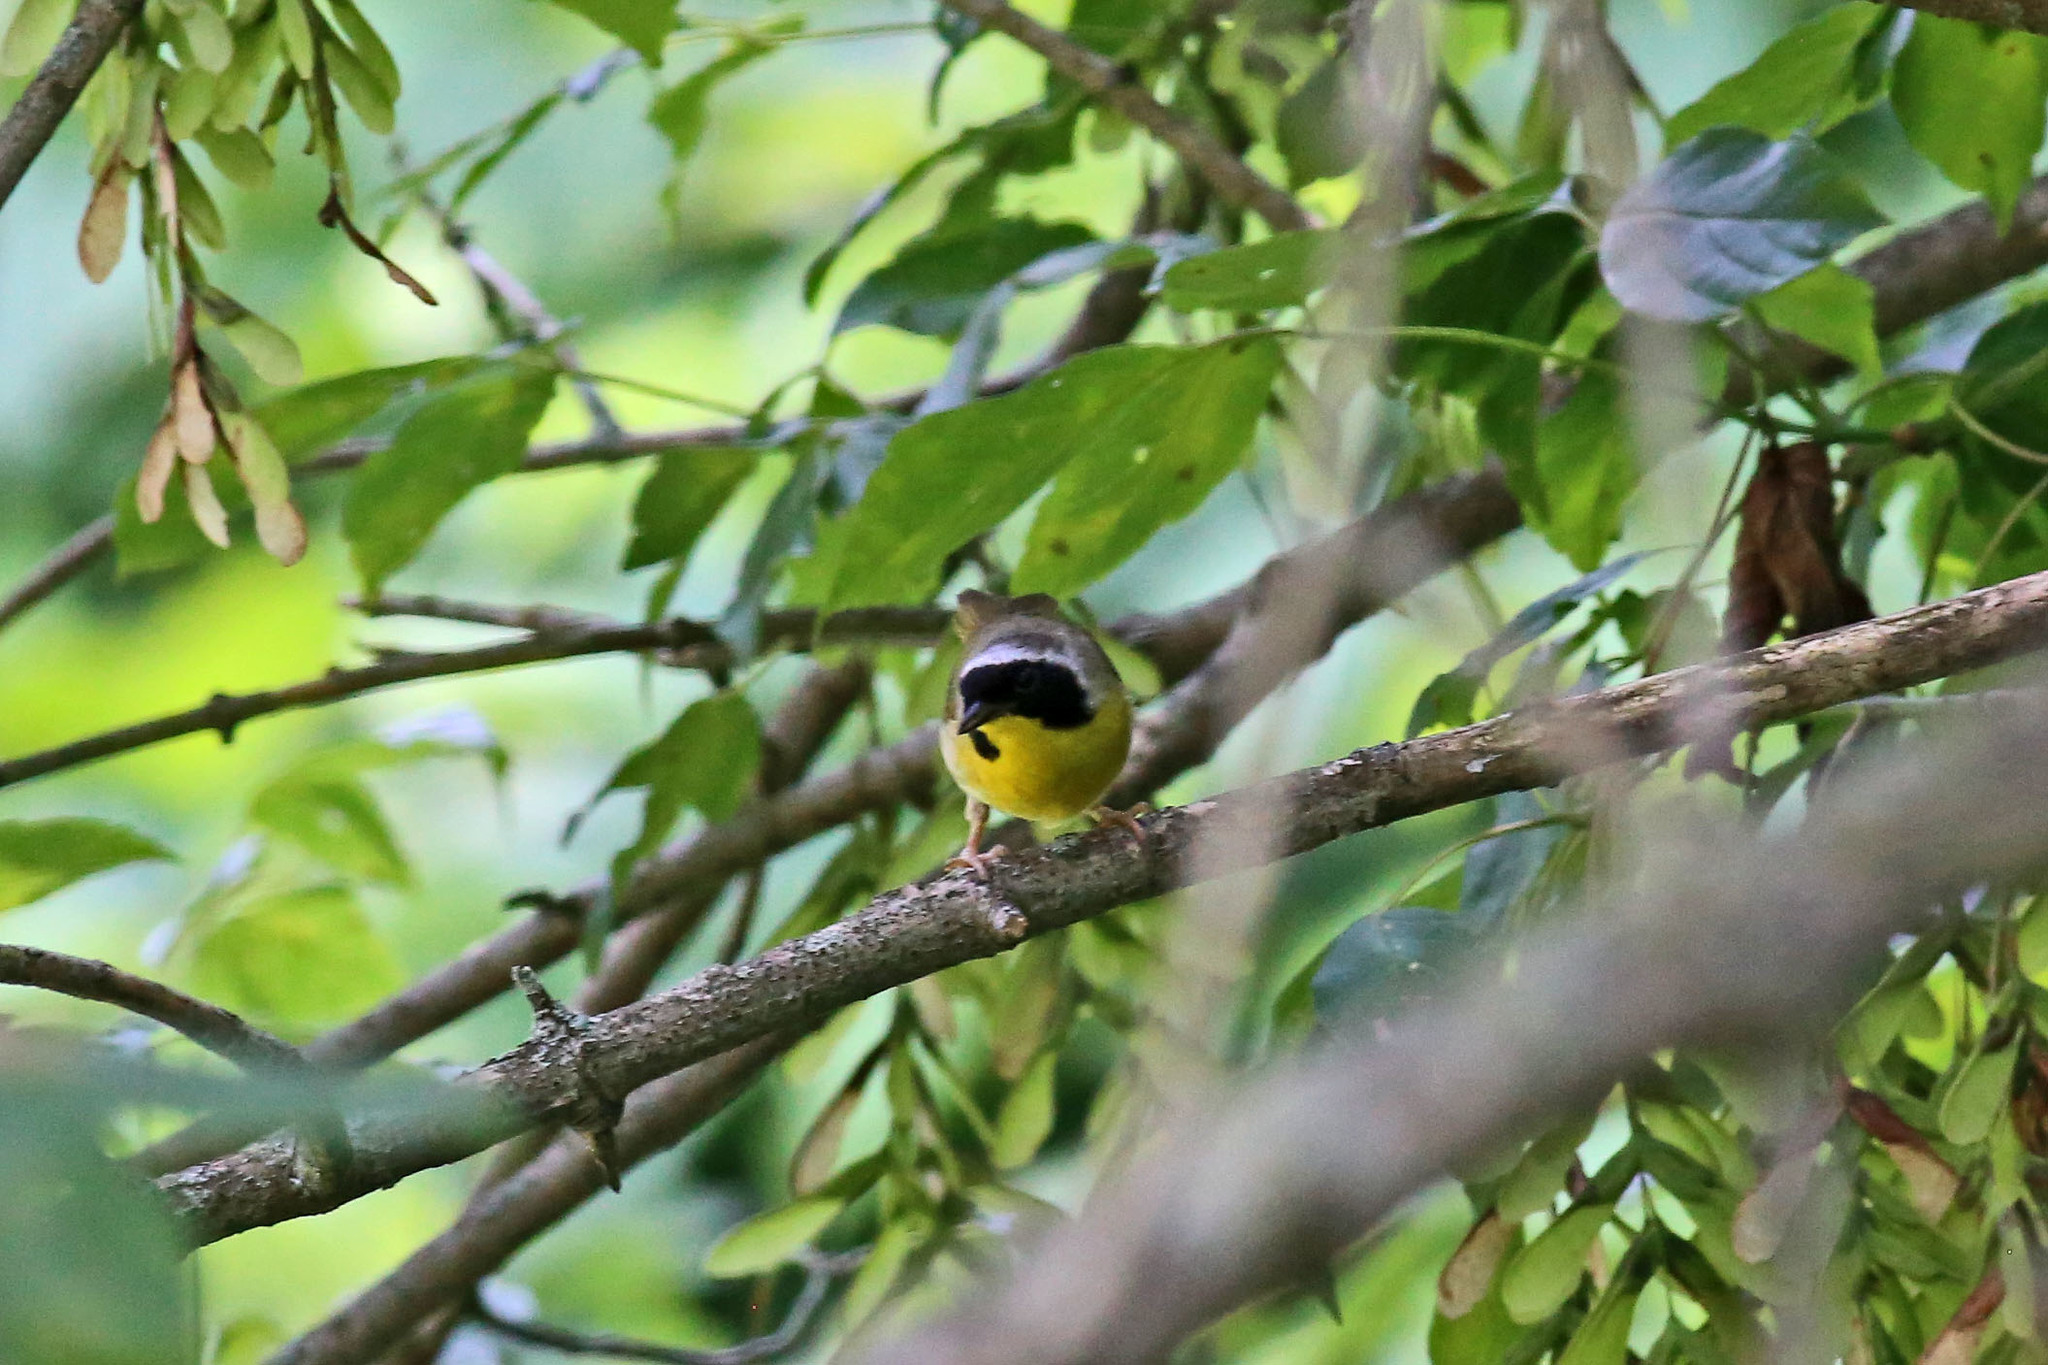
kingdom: Animalia
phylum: Chordata
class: Aves
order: Passeriformes
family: Parulidae
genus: Geothlypis
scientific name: Geothlypis trichas
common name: Common yellowthroat
